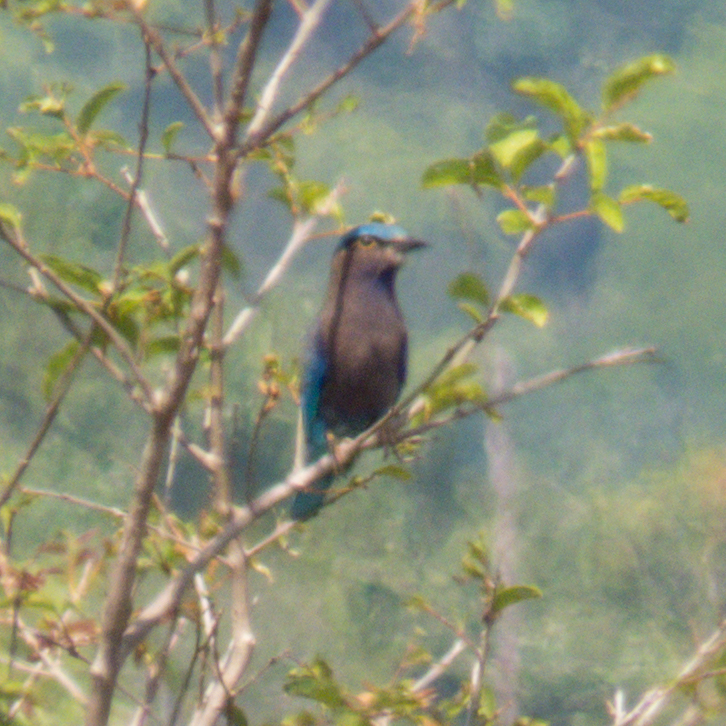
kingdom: Animalia
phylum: Chordata
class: Aves
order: Coraciiformes
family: Coraciidae
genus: Coracias
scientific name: Coracias affinis
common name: Indochinese roller
